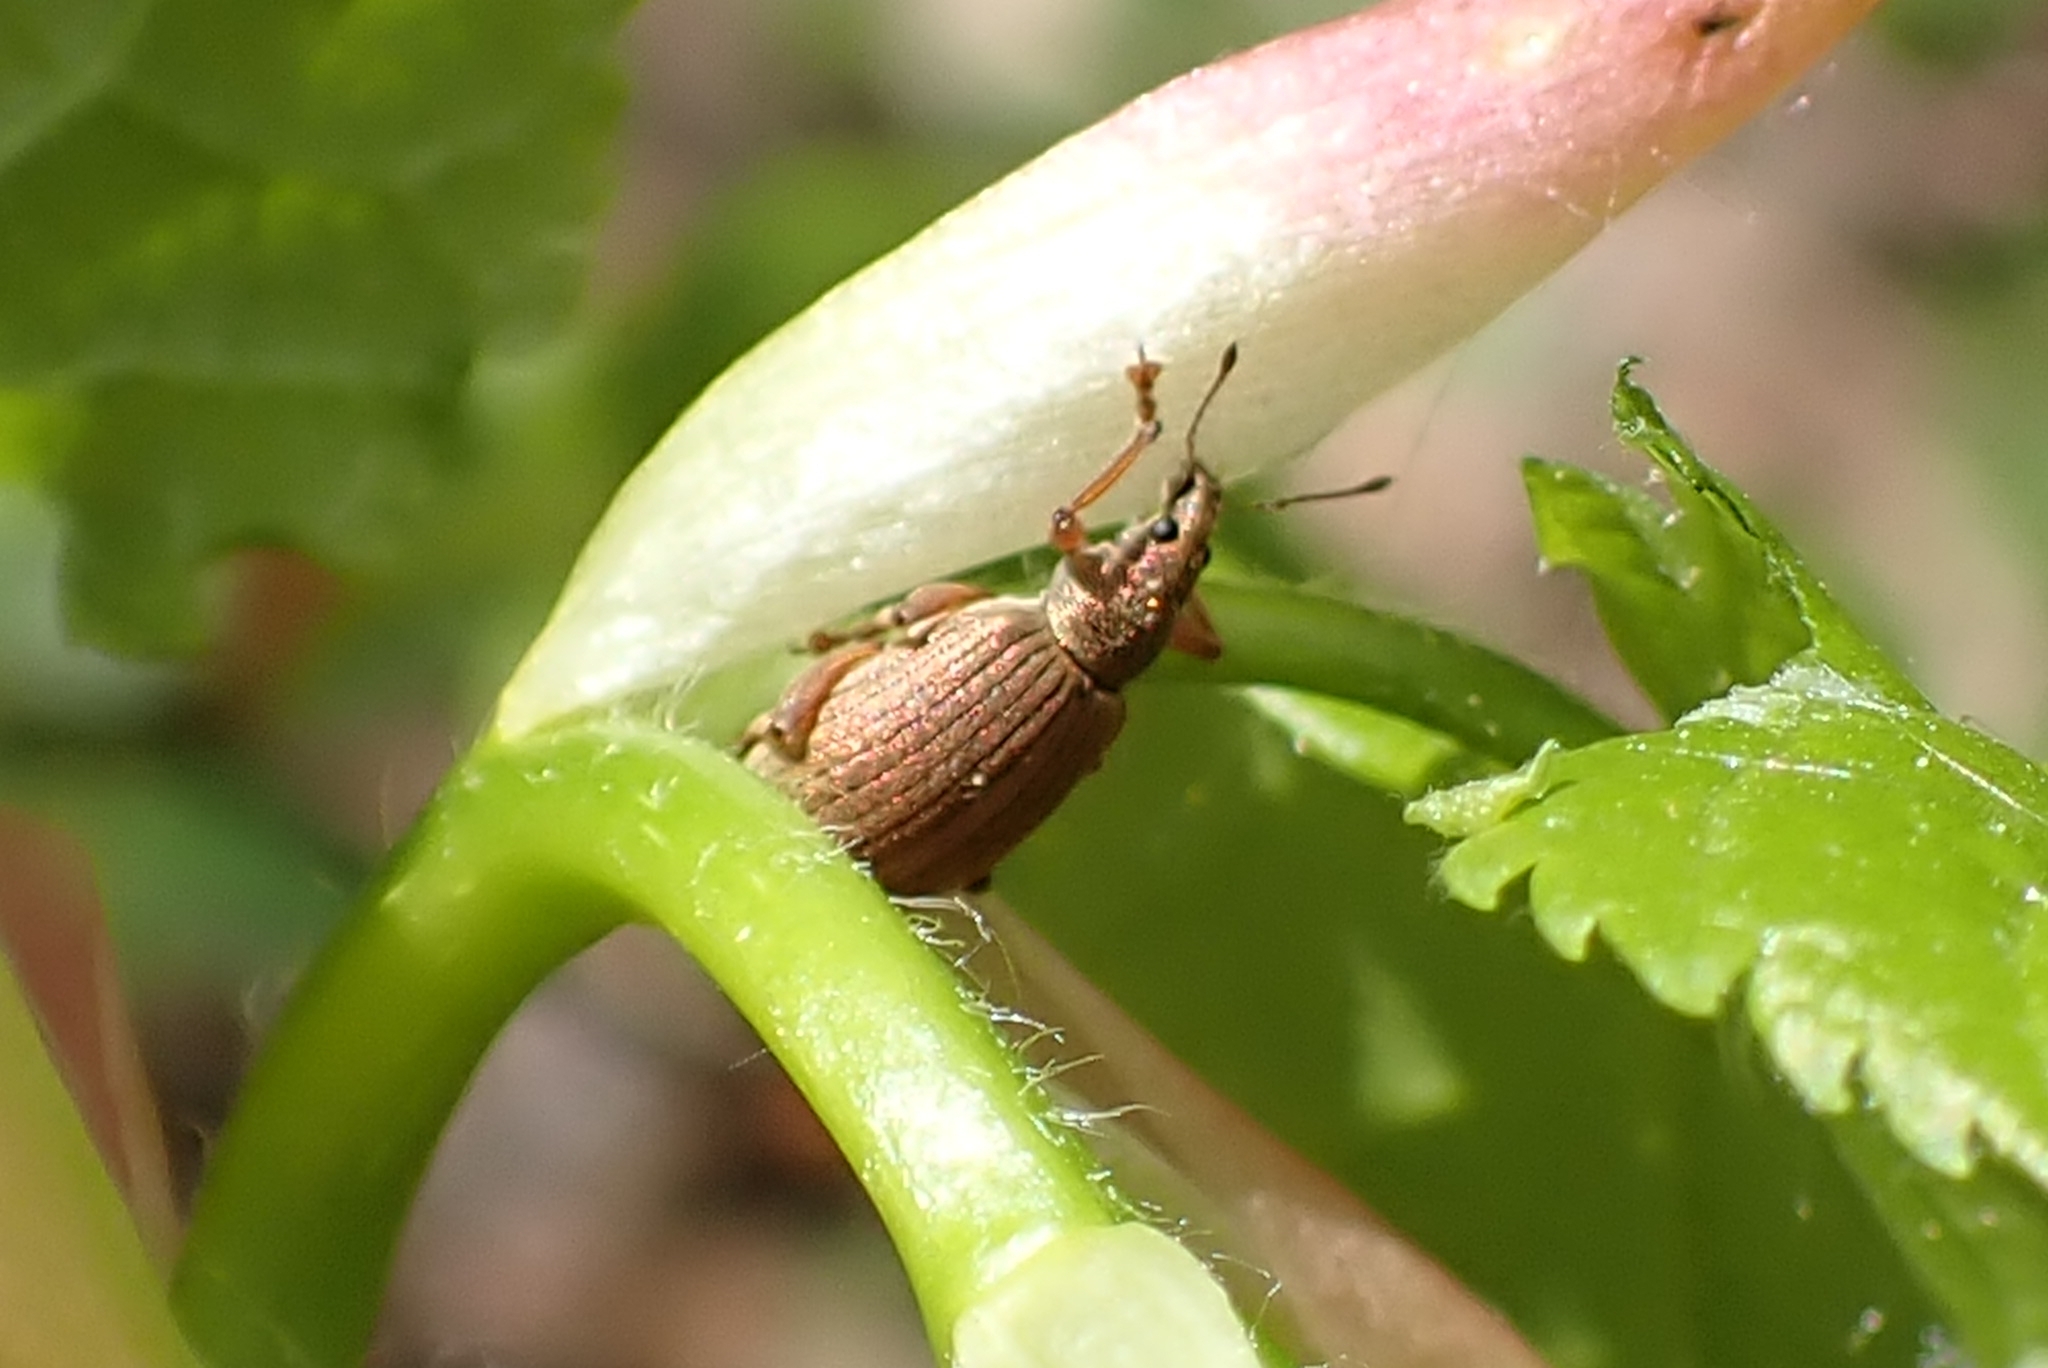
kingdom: Animalia
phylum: Arthropoda
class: Insecta
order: Coleoptera
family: Curculionidae
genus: Polydrusus
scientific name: Polydrusus mollis
